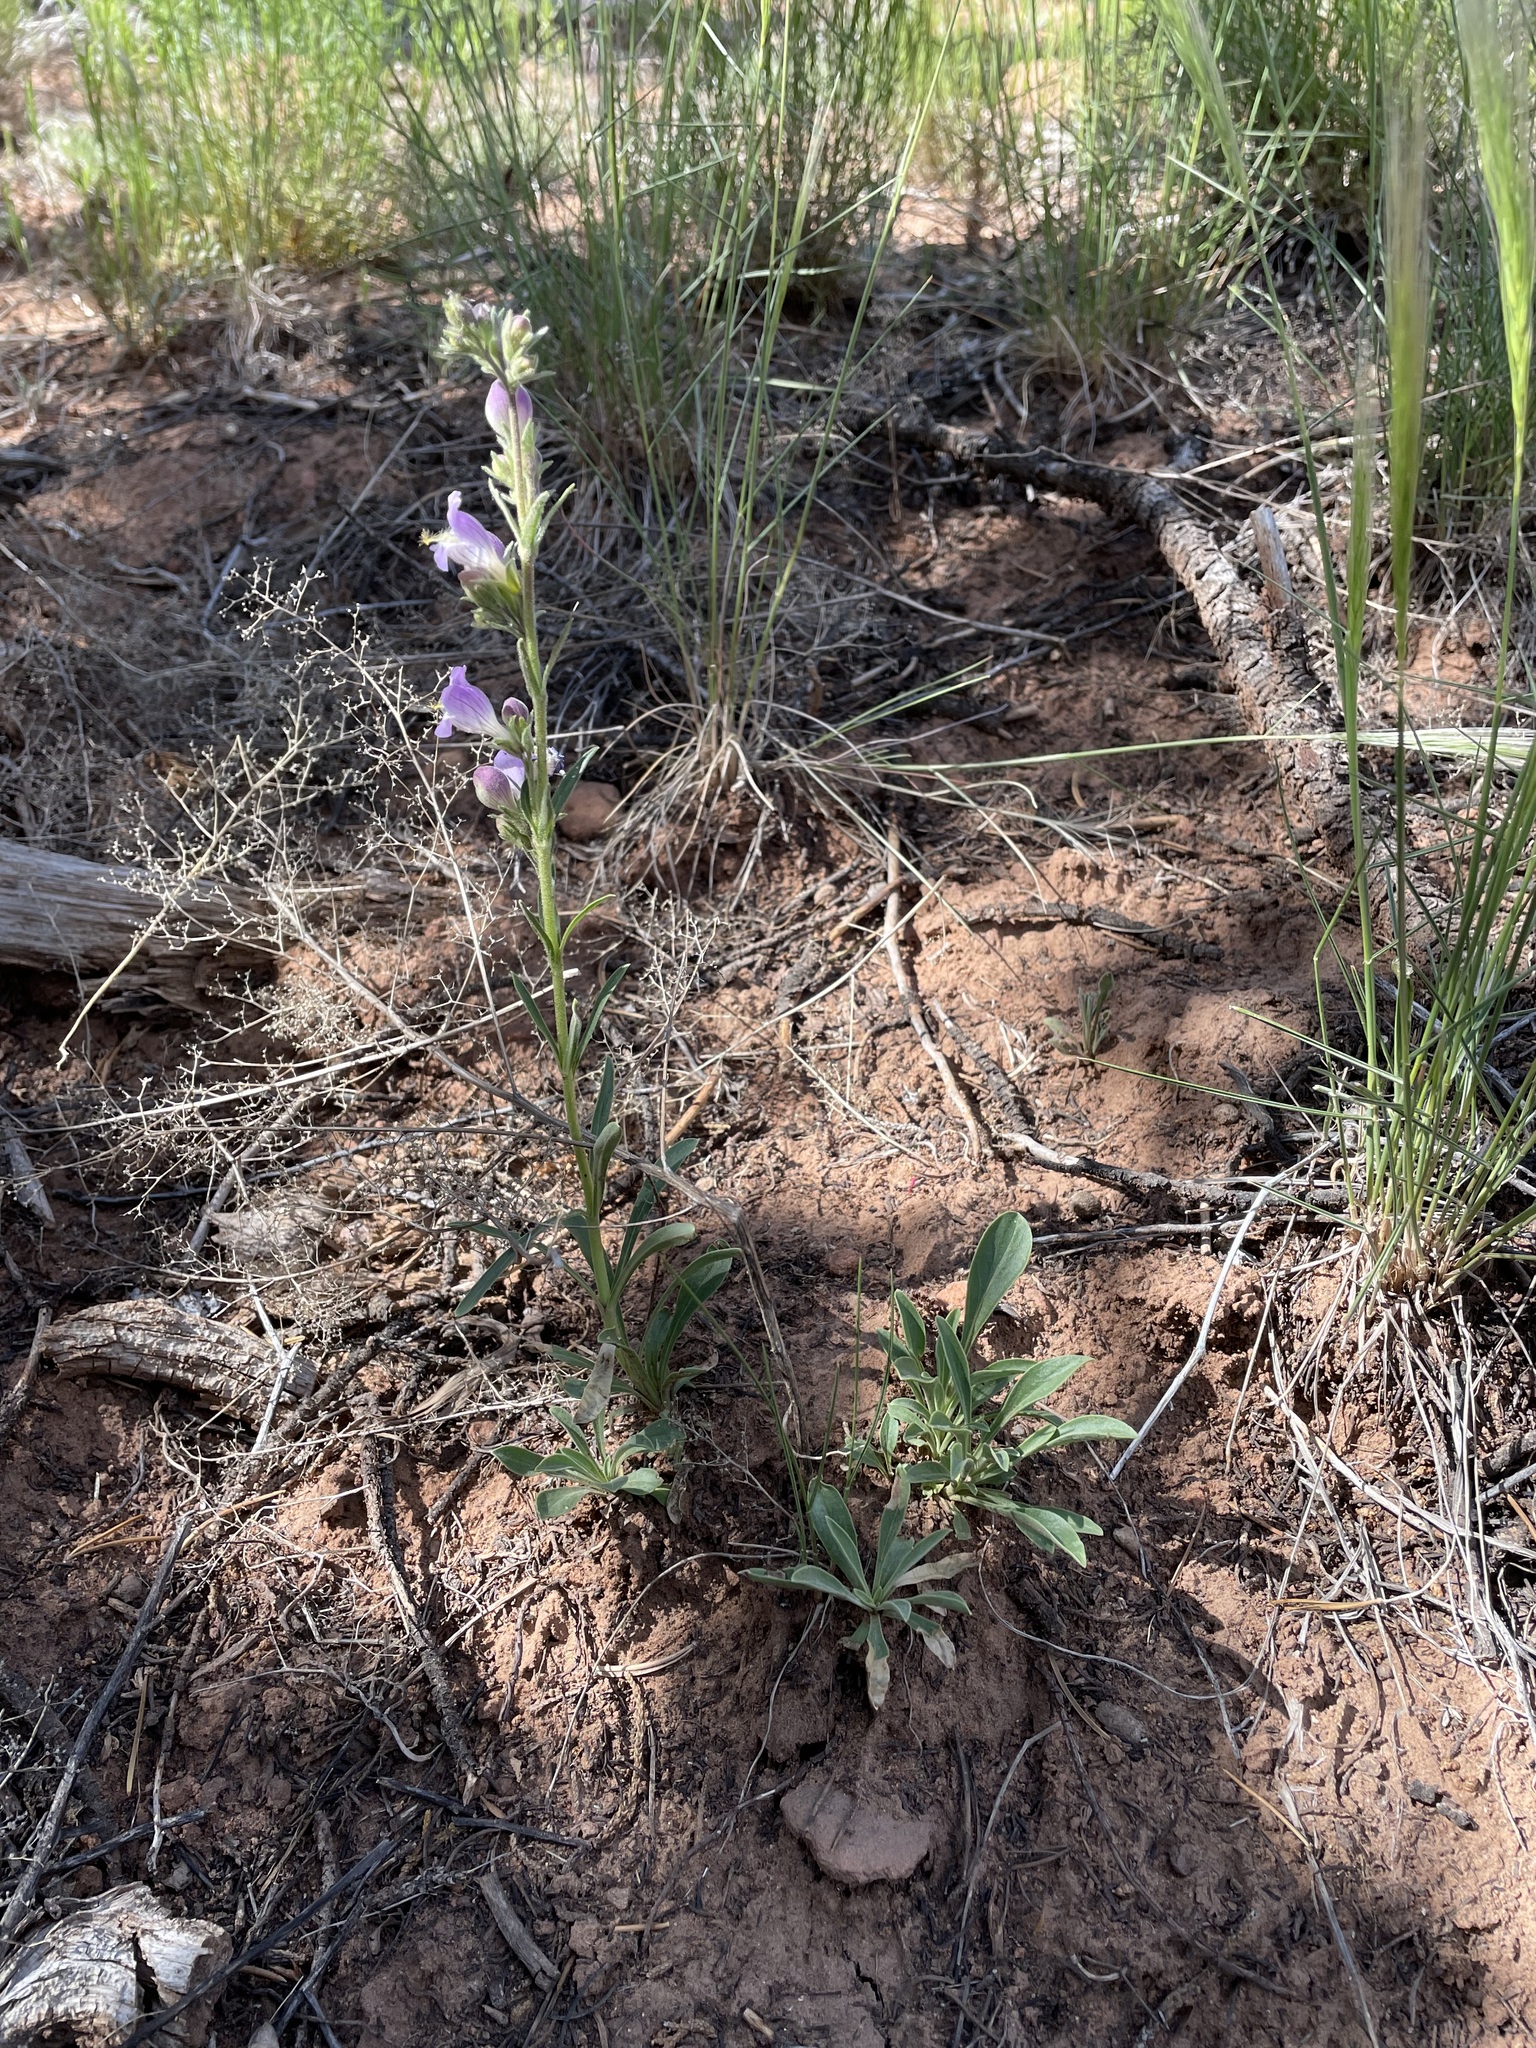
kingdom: Plantae
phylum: Tracheophyta
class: Magnoliopsida
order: Lamiales
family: Plantaginaceae
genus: Penstemon
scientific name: Penstemon ophianthus
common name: Arizona beardtongue
